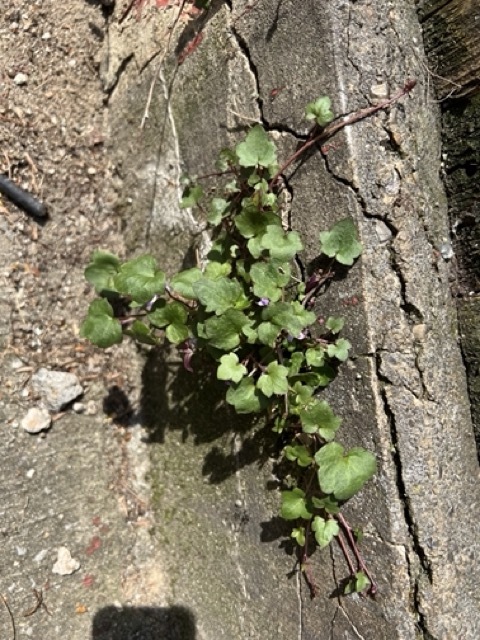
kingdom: Plantae
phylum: Tracheophyta
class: Magnoliopsida
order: Lamiales
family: Plantaginaceae
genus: Cymbalaria
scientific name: Cymbalaria muralis
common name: Ivy-leaved toadflax
